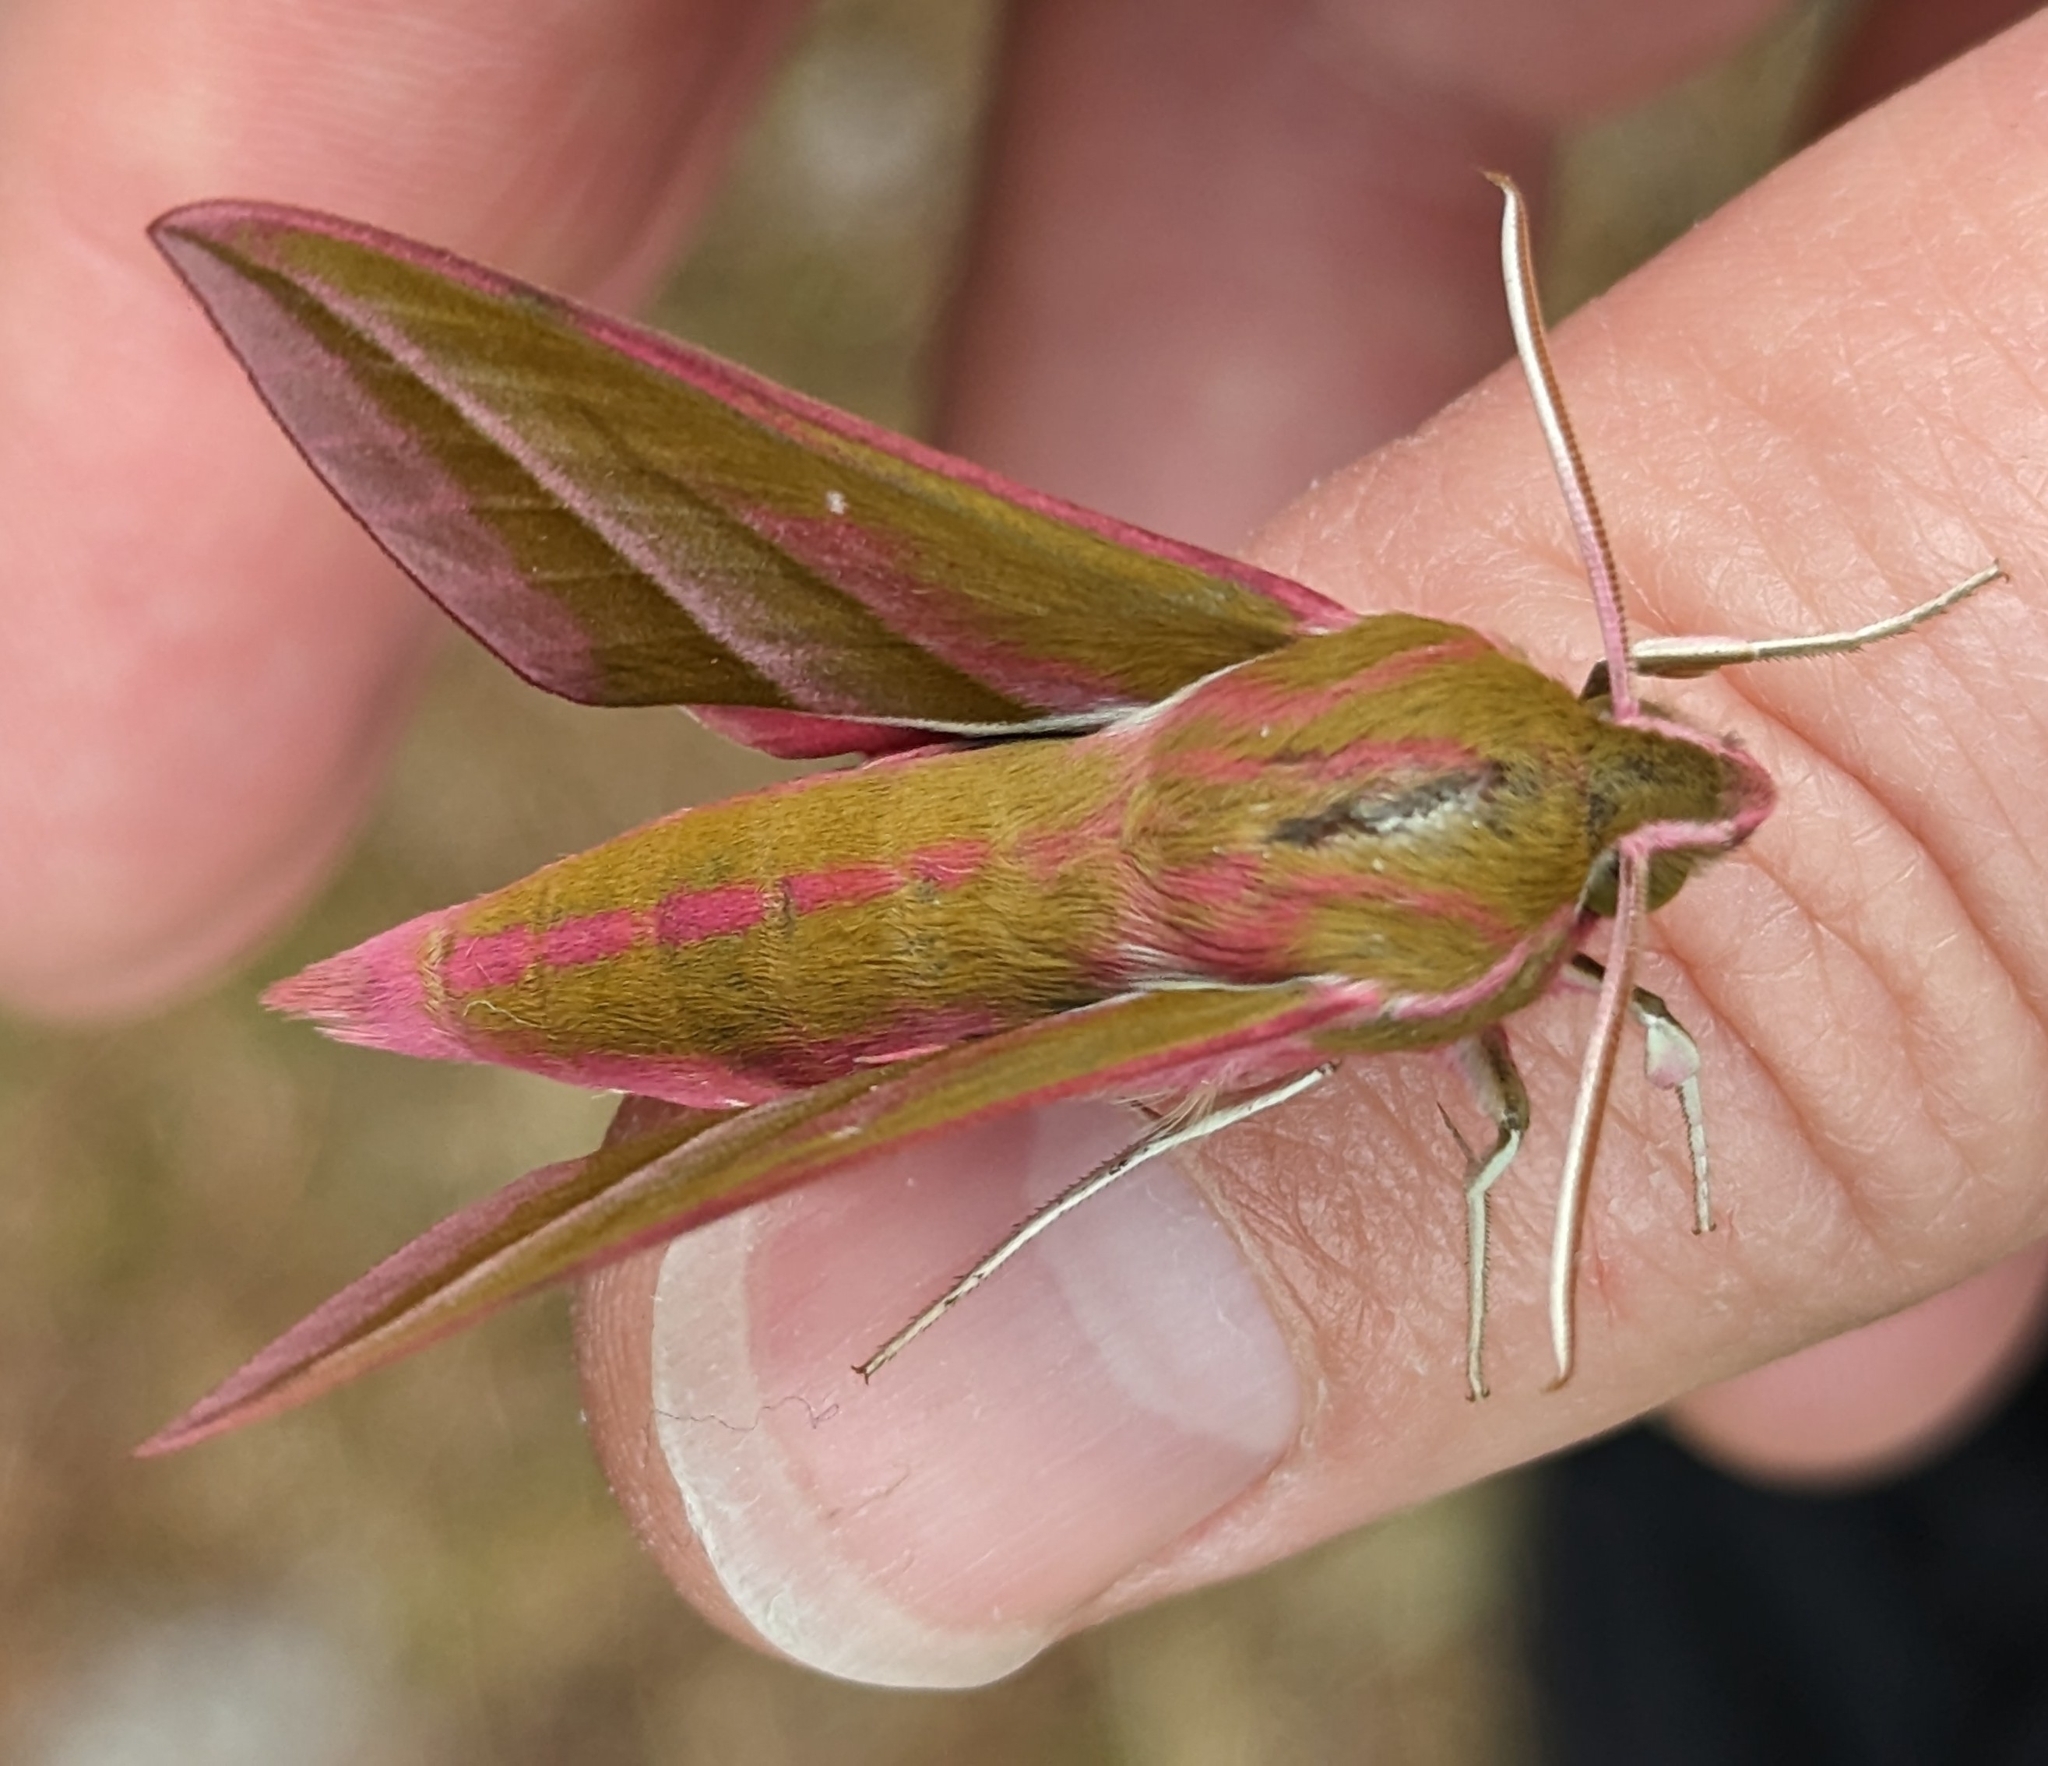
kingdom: Animalia
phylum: Arthropoda
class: Insecta
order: Lepidoptera
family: Sphingidae
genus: Deilephila
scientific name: Deilephila elpenor
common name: Elephant hawk-moth
